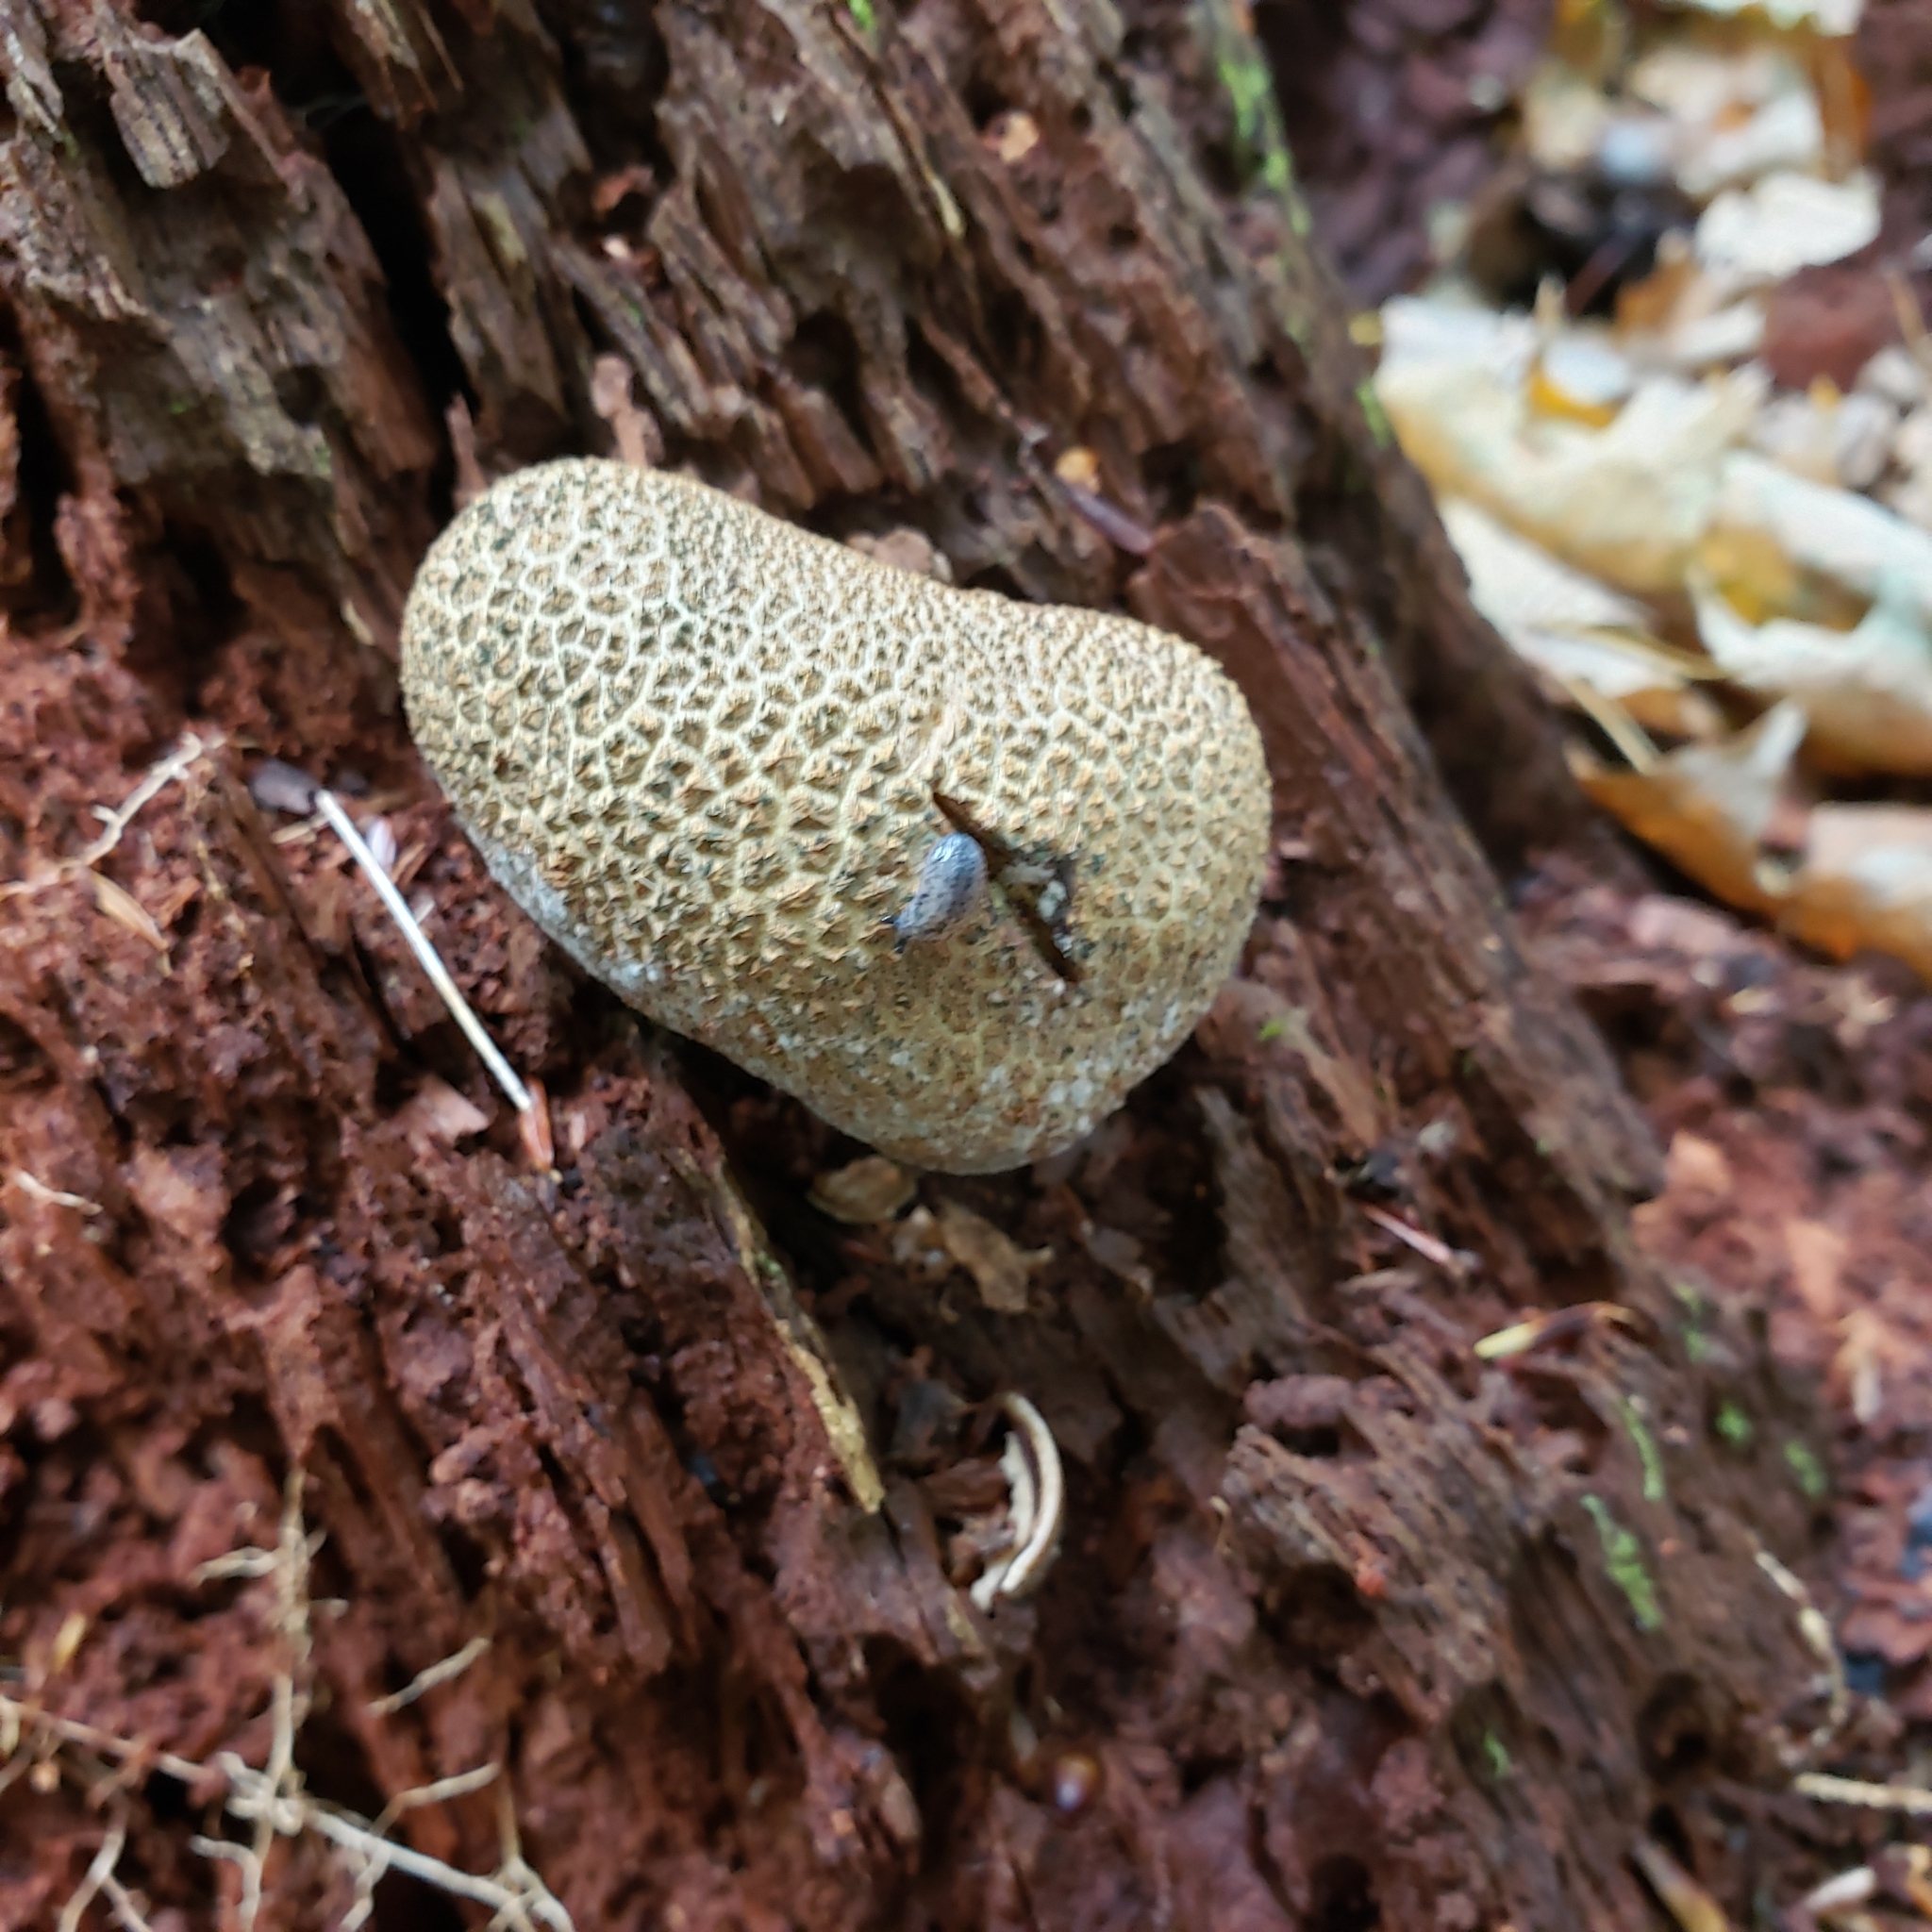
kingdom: Fungi
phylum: Basidiomycota
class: Agaricomycetes
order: Boletales
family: Sclerodermataceae
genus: Scleroderma
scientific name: Scleroderma citrinum
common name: Common earthball
